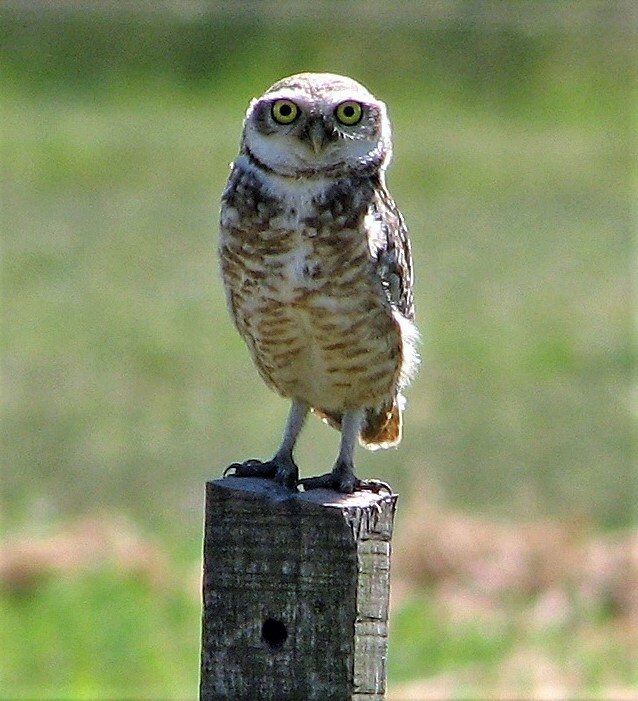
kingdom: Animalia
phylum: Chordata
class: Aves
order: Strigiformes
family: Strigidae
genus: Athene
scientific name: Athene cunicularia
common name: Burrowing owl
